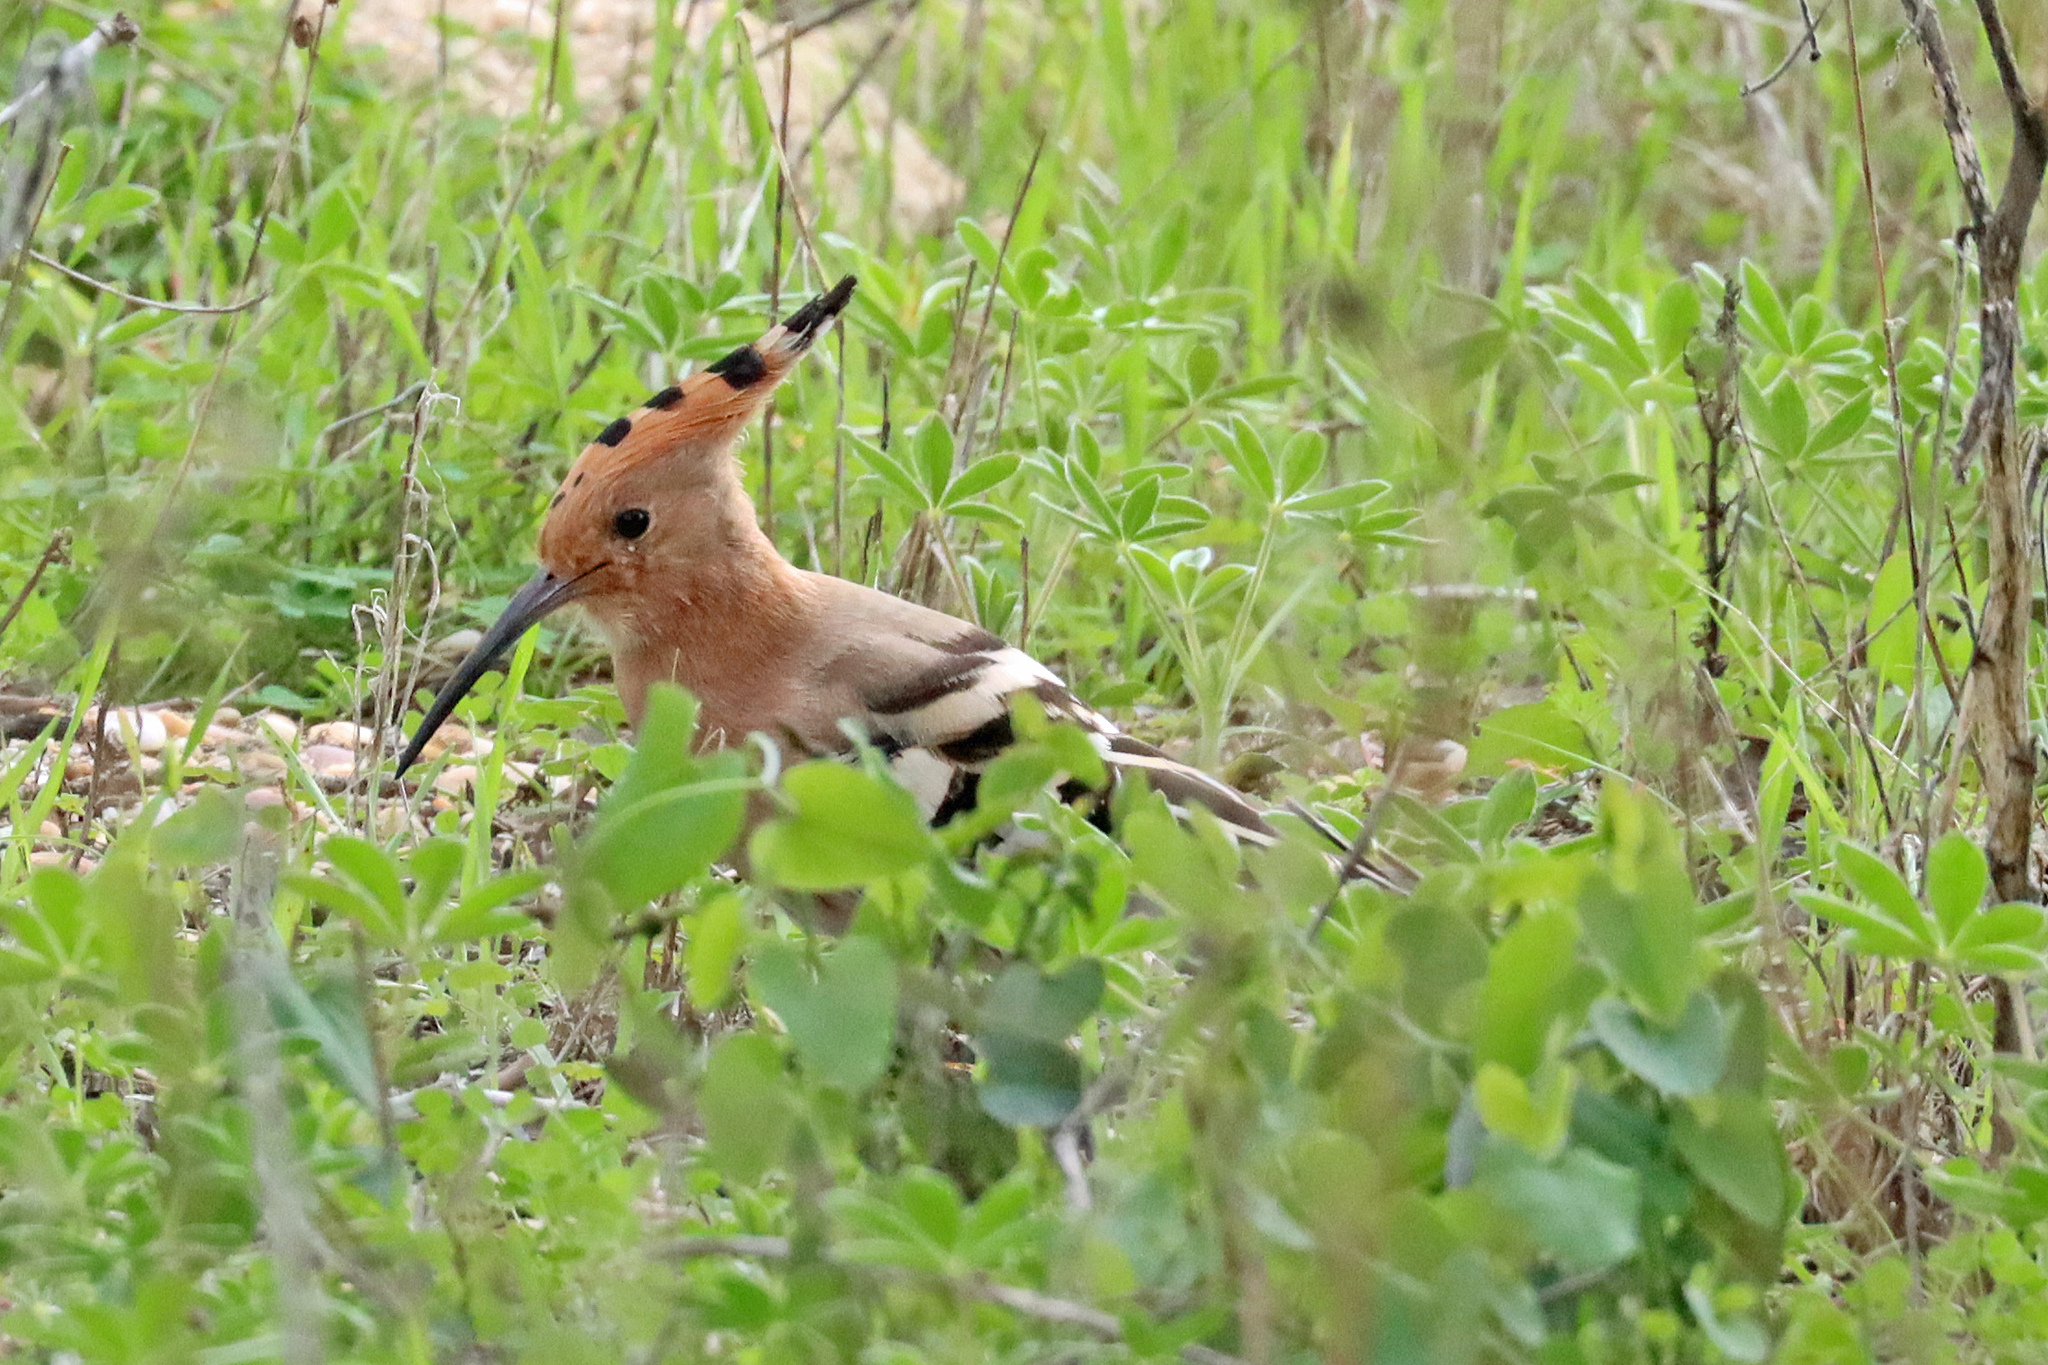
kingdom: Animalia
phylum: Chordata
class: Aves
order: Bucerotiformes
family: Upupidae
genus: Upupa
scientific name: Upupa epops
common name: Eurasian hoopoe
